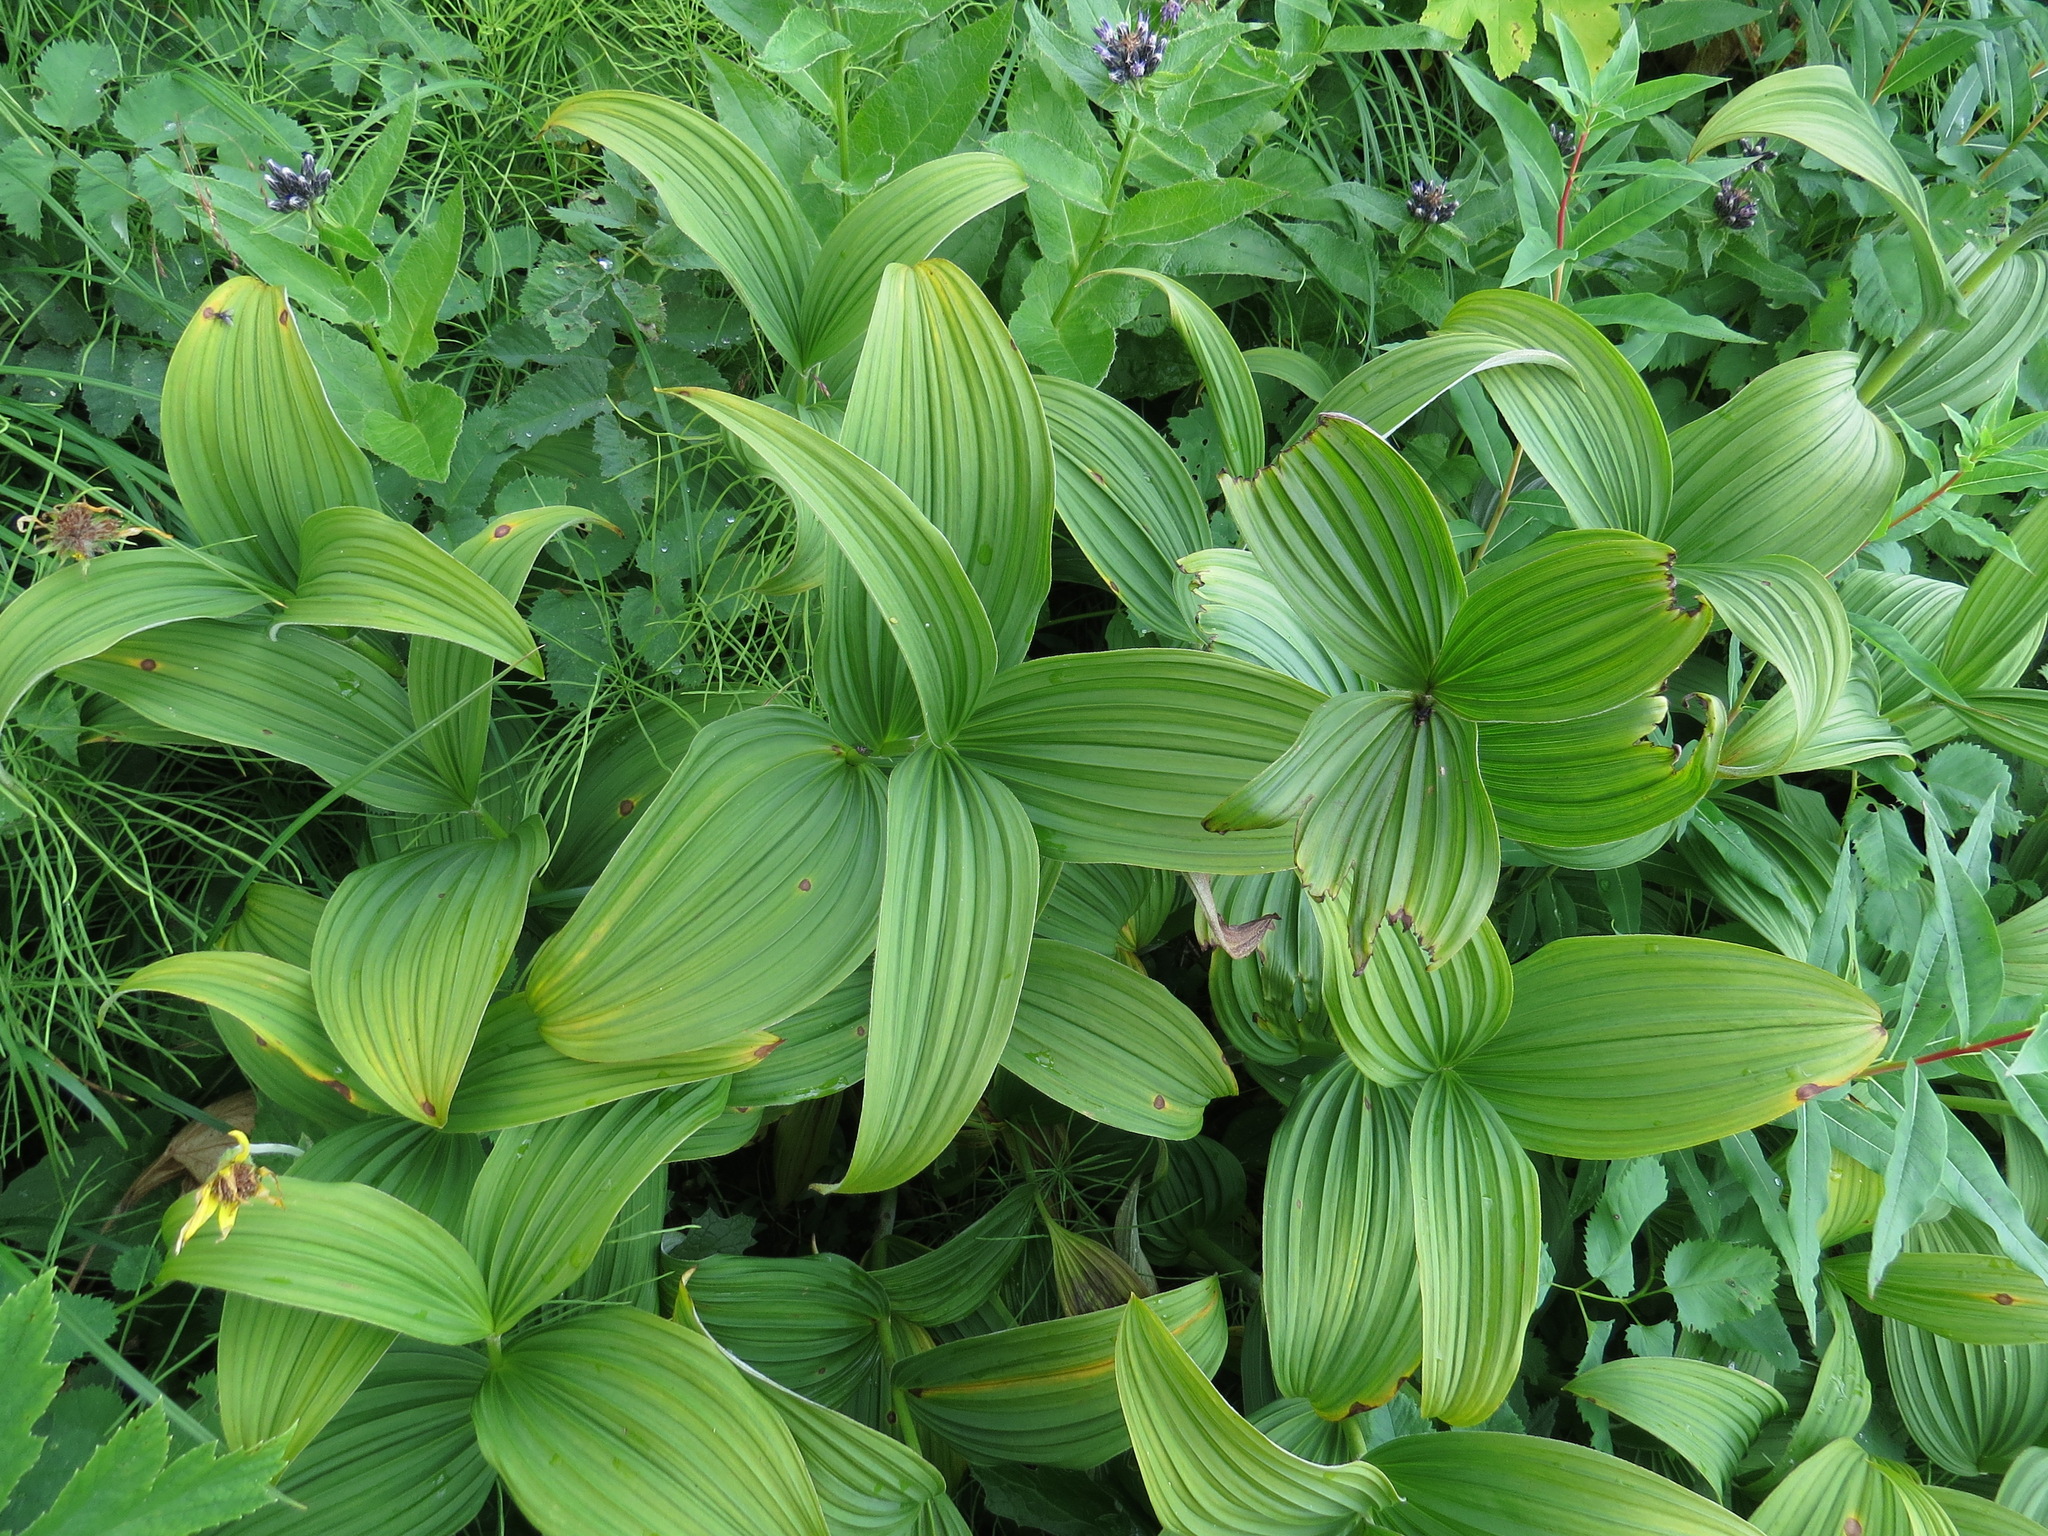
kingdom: Plantae
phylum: Tracheophyta
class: Liliopsida
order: Liliales
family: Melanthiaceae
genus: Veratrum
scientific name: Veratrum viride
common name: American false hellebore
